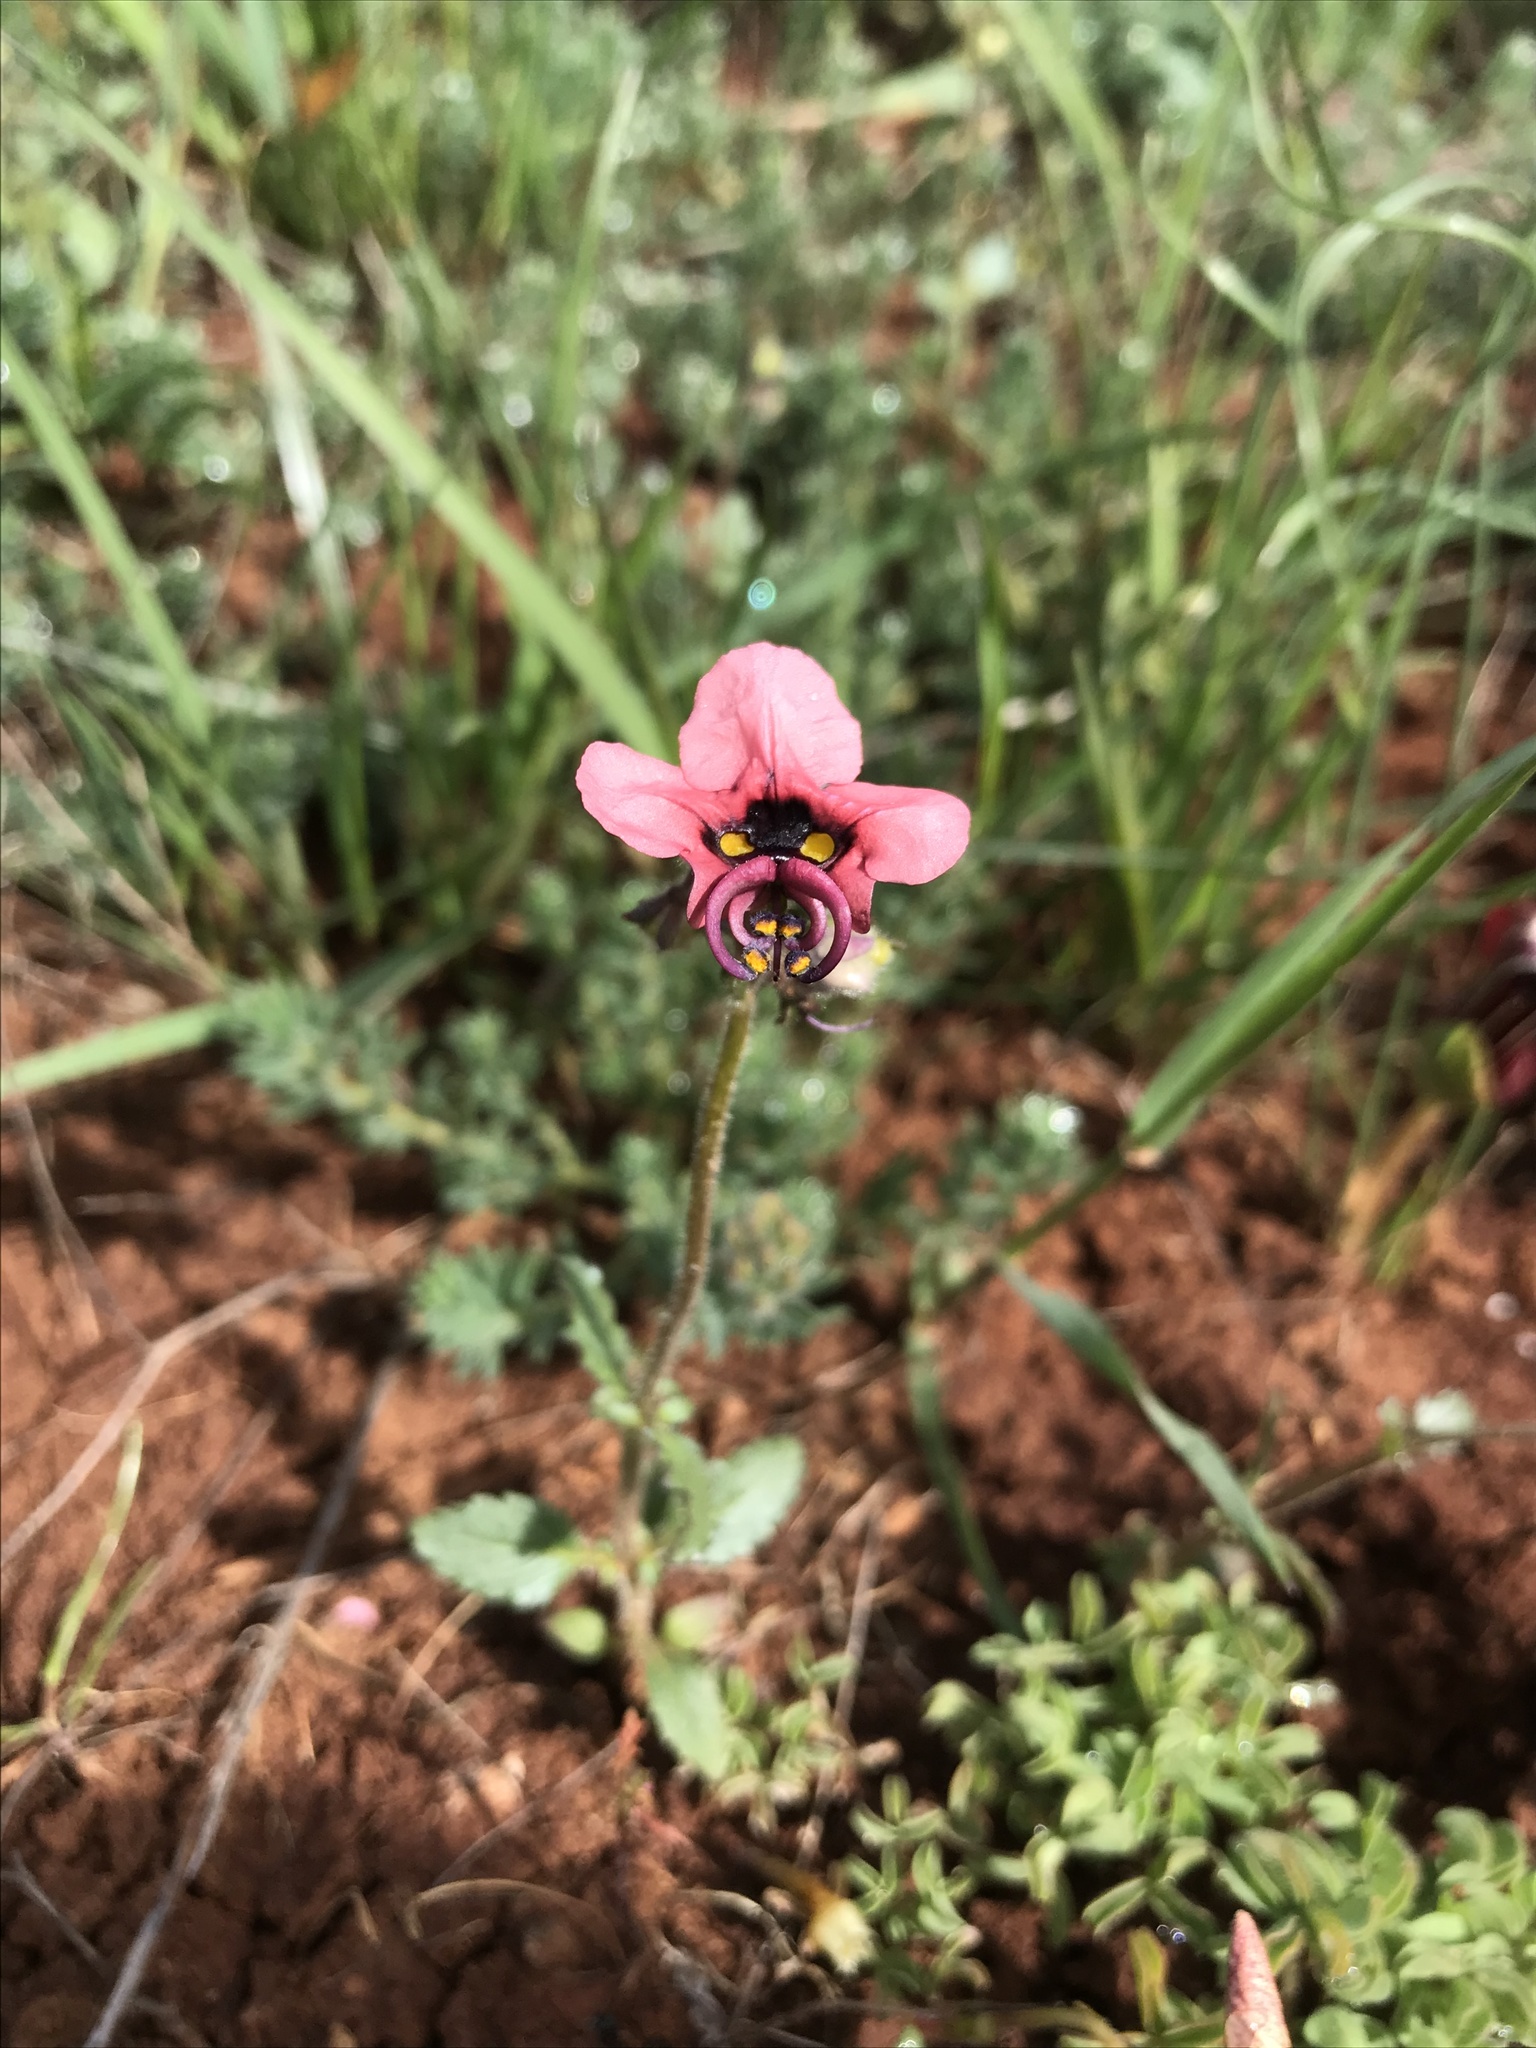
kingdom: Plantae
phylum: Tracheophyta
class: Magnoliopsida
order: Lamiales
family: Scrophulariaceae
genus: Alonsoa
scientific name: Alonsoa unilabiata
